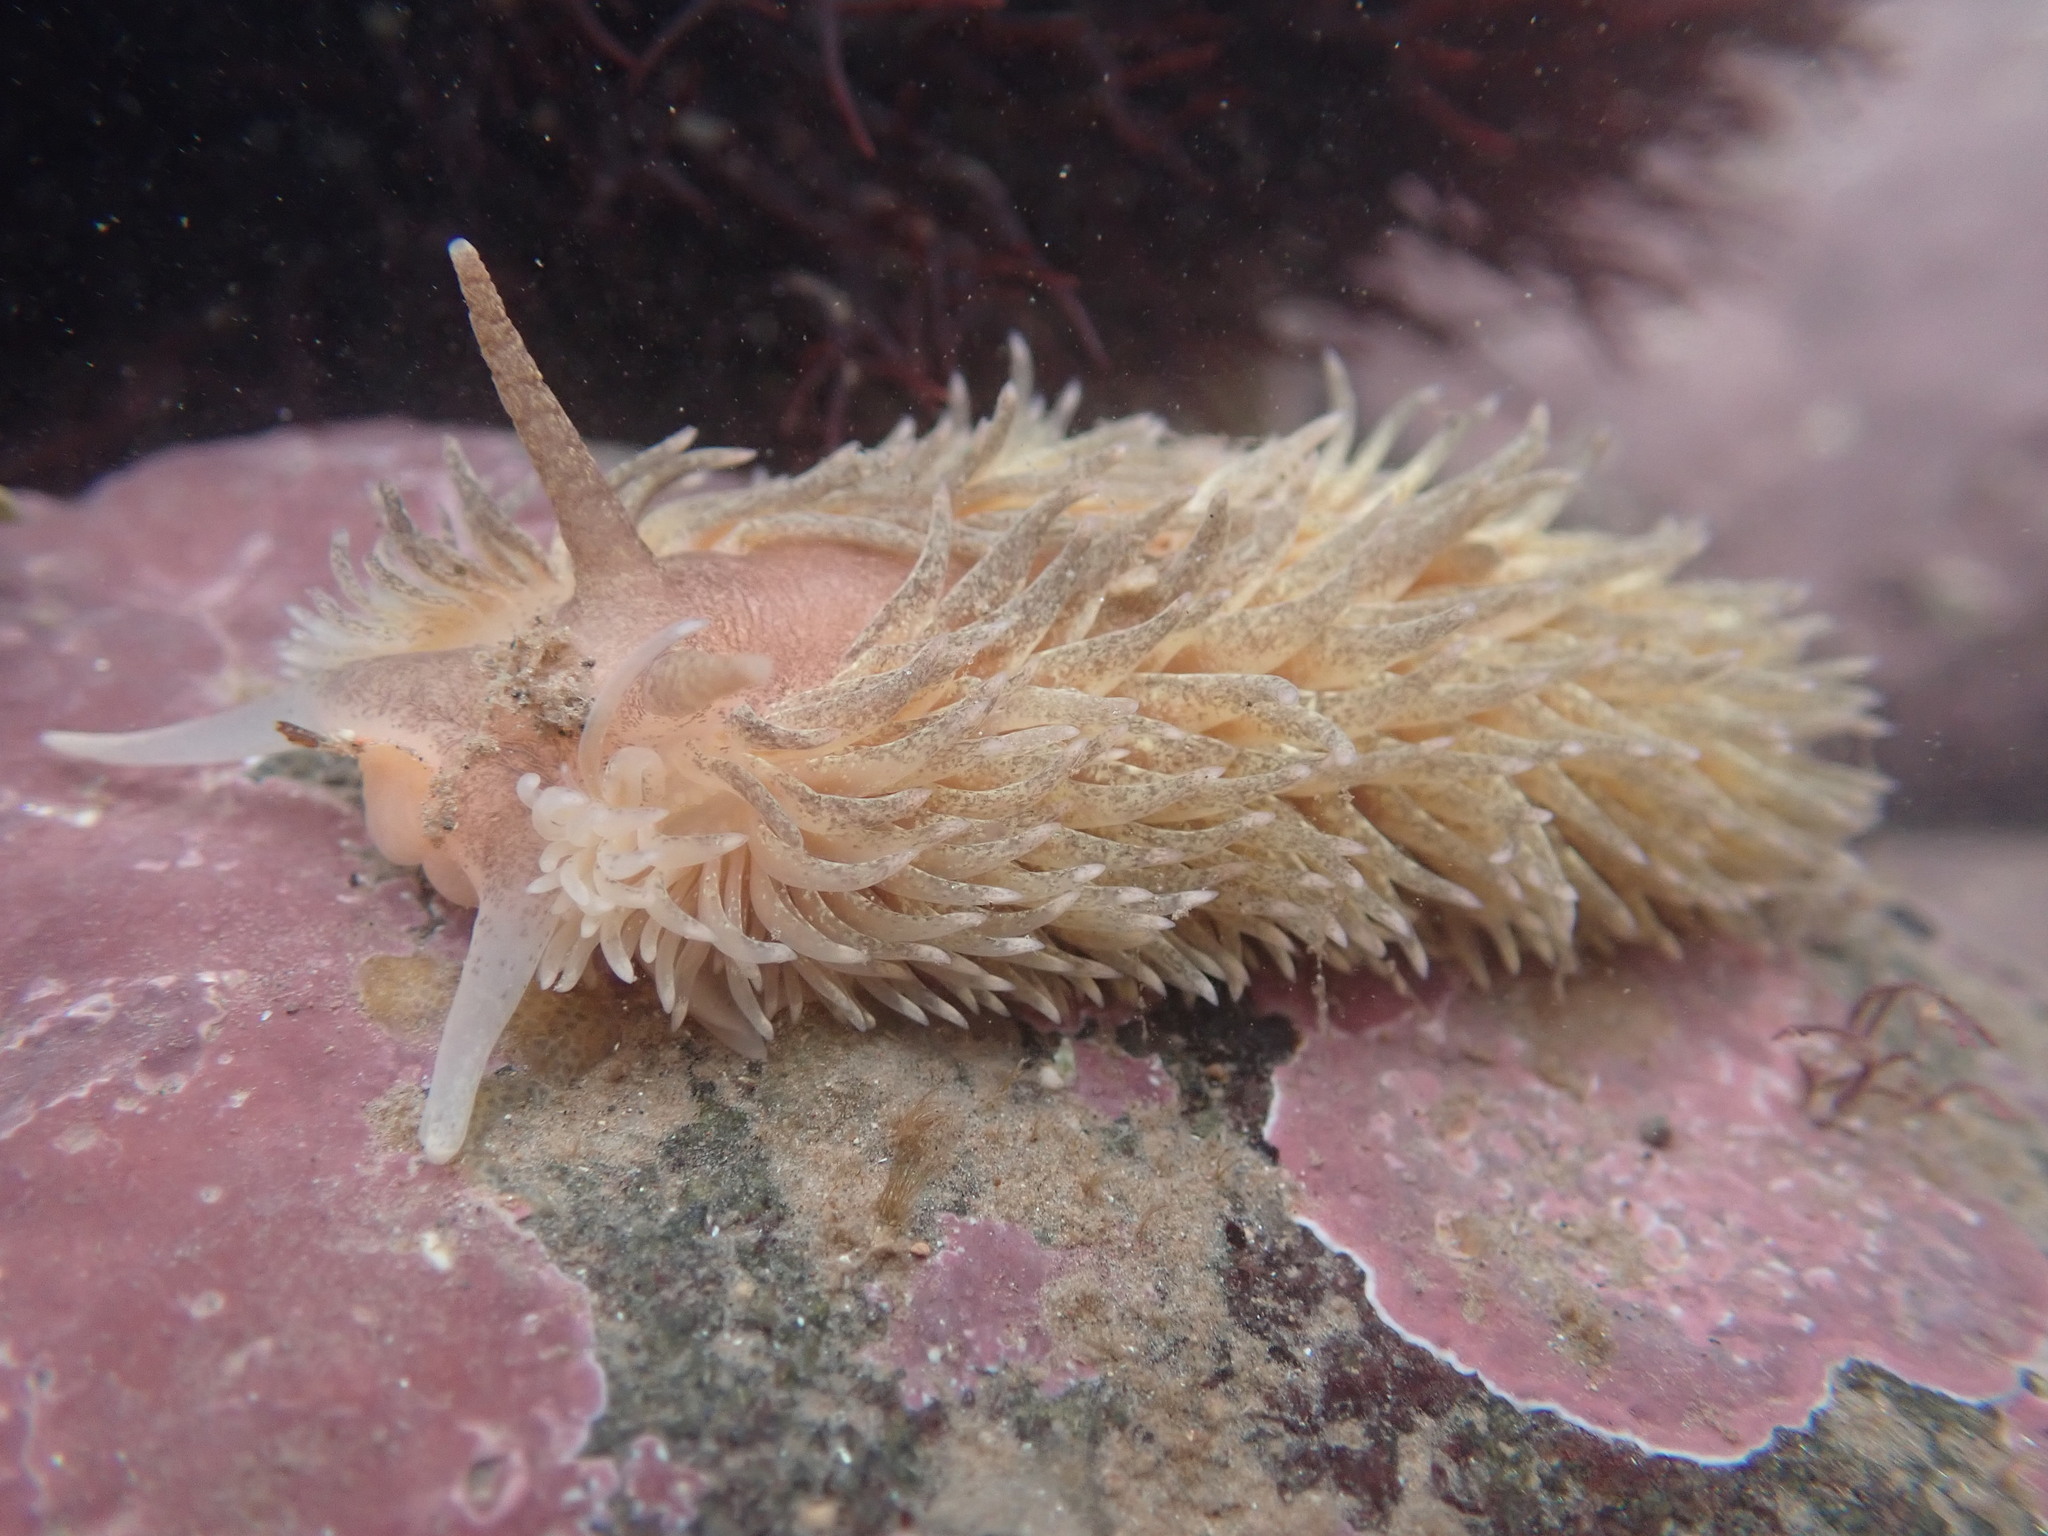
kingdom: Animalia
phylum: Mollusca
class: Gastropoda
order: Nudibranchia
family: Aeolidiidae
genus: Aeolidia
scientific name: Aeolidia papillosa
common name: Common grey sea slug
